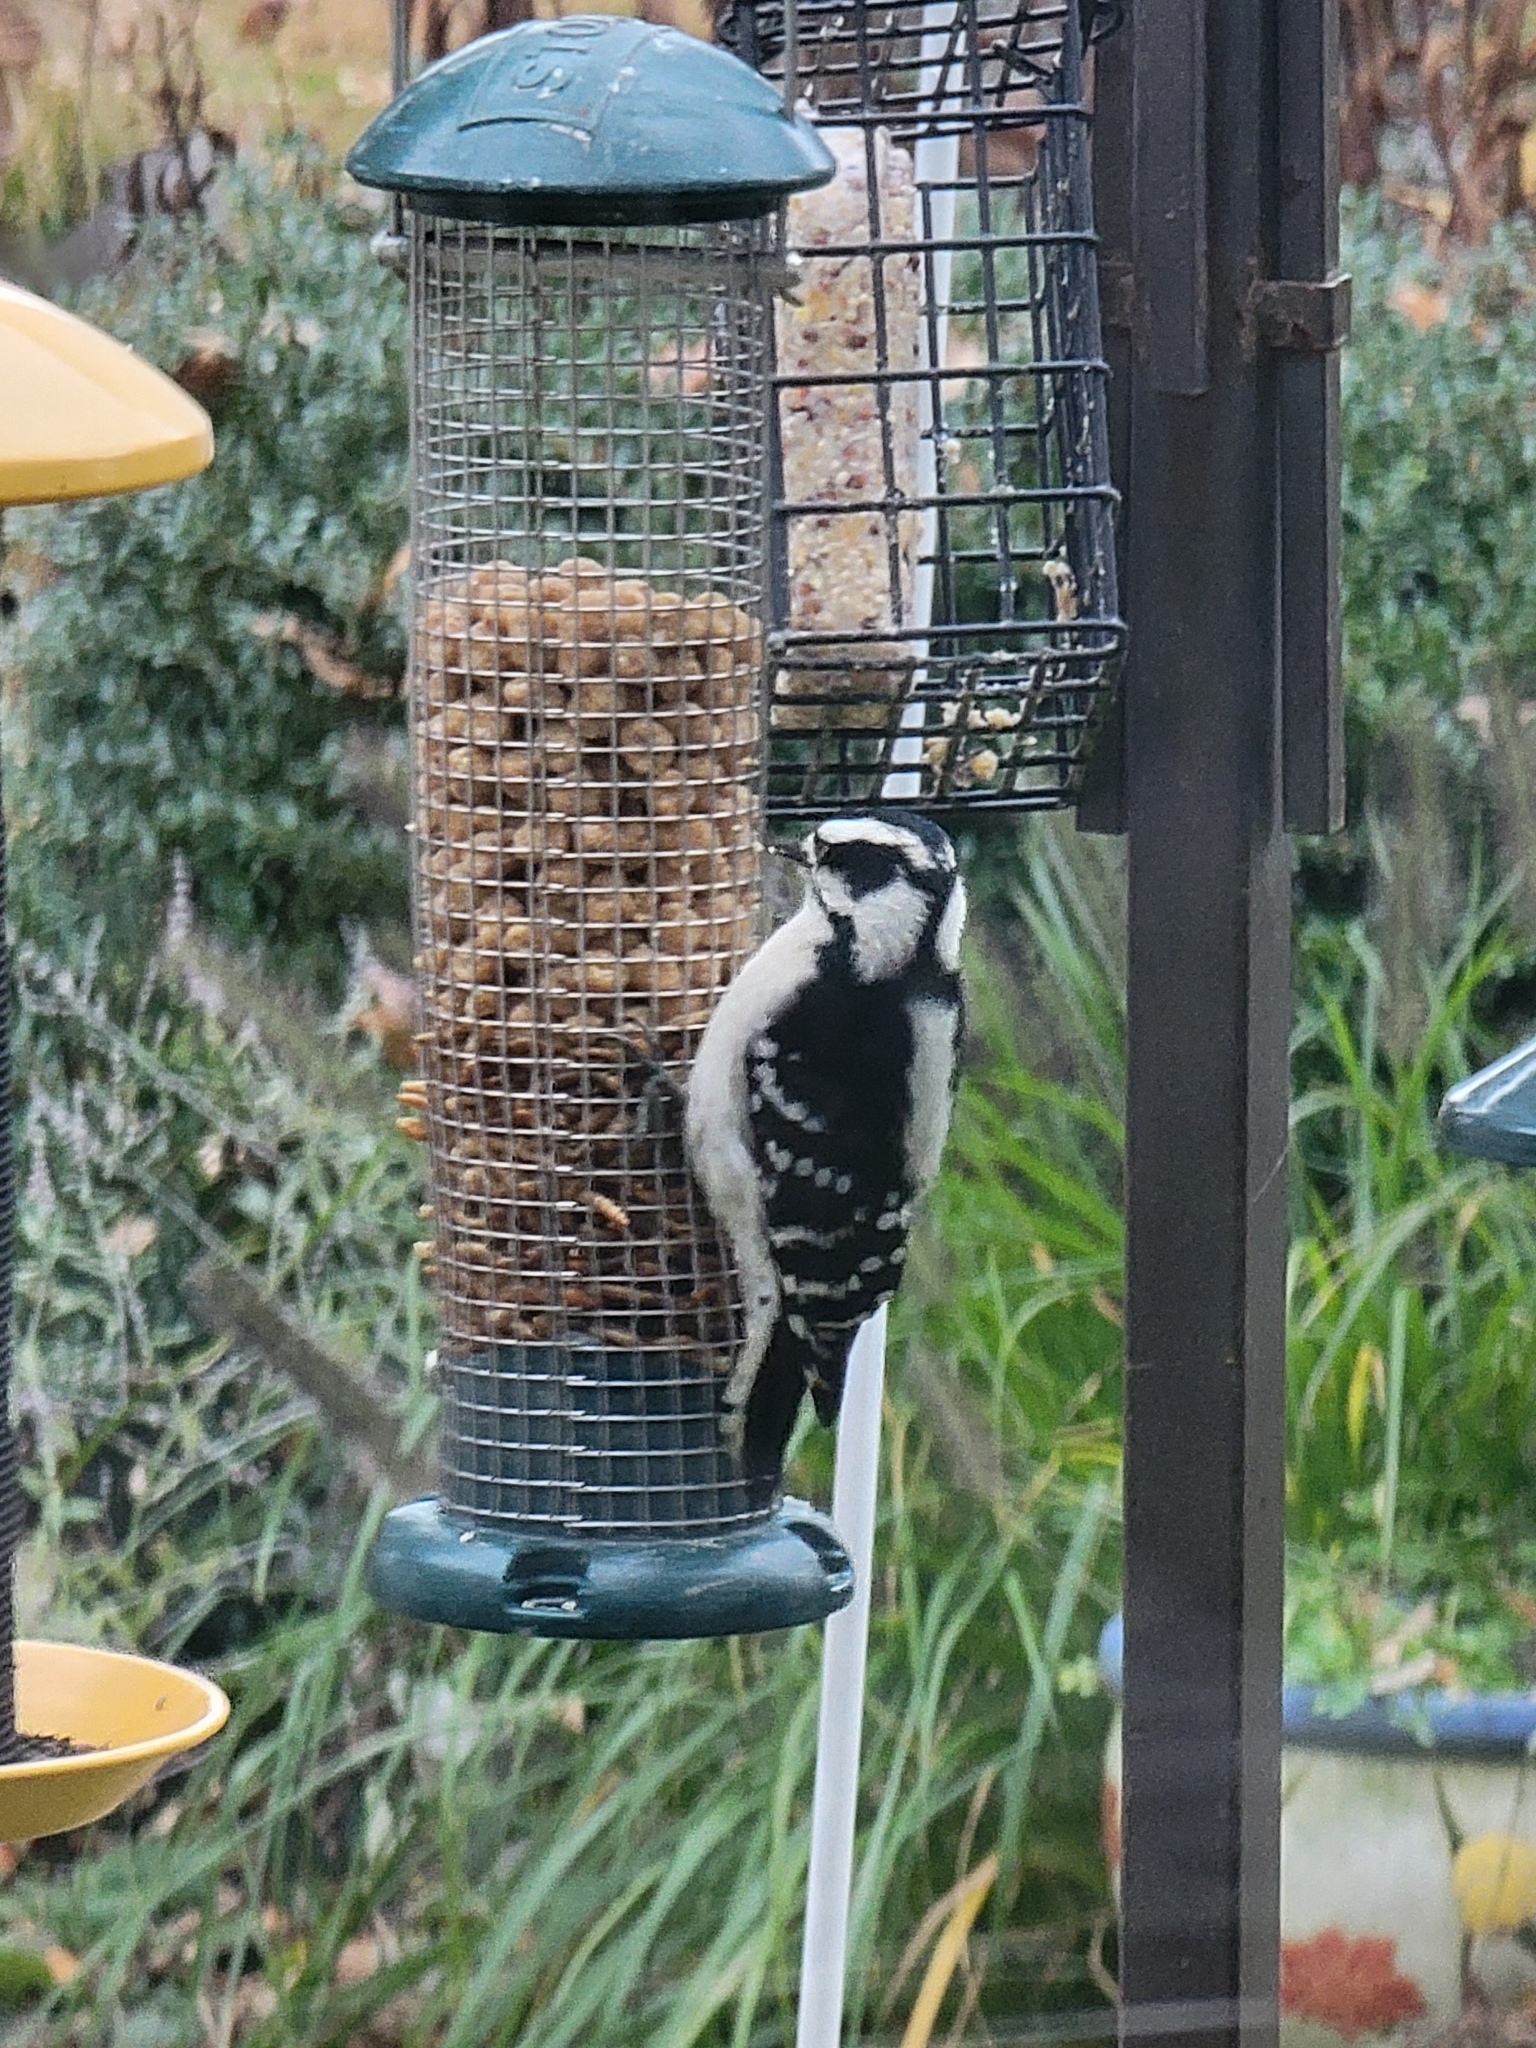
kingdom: Animalia
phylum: Chordata
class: Aves
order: Piciformes
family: Picidae
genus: Dryobates
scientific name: Dryobates pubescens
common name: Downy woodpecker
